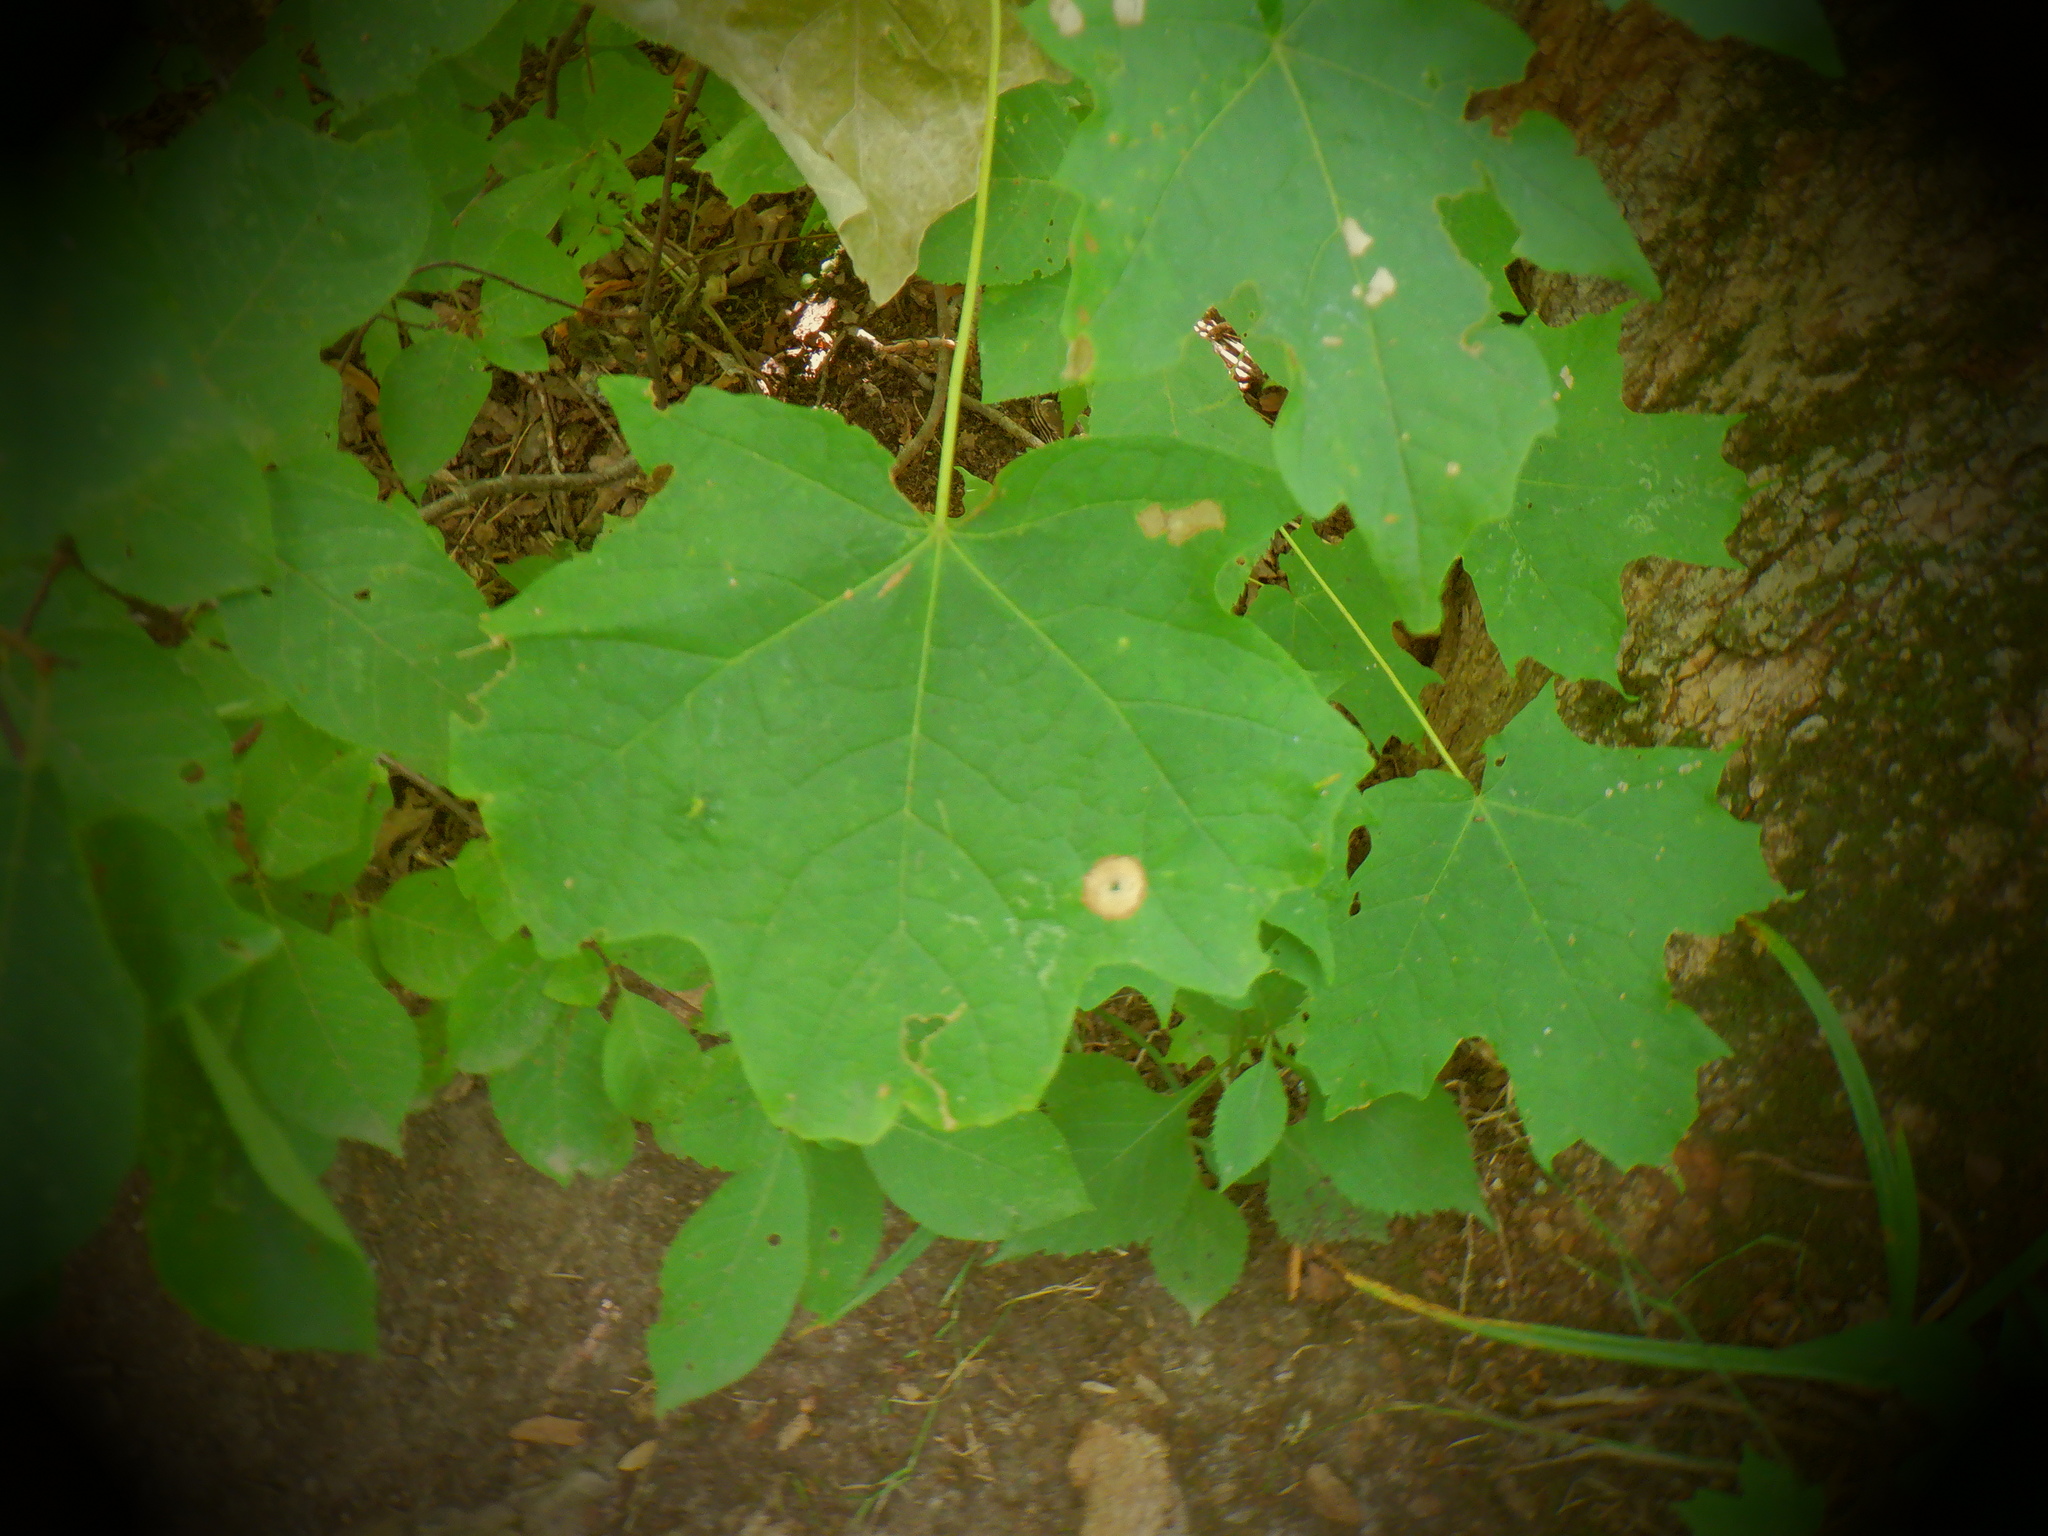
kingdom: Animalia
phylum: Arthropoda
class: Insecta
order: Diptera
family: Cecidomyiidae
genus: Acericecis
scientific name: Acericecis ocellaris
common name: Ocellate gall midge
